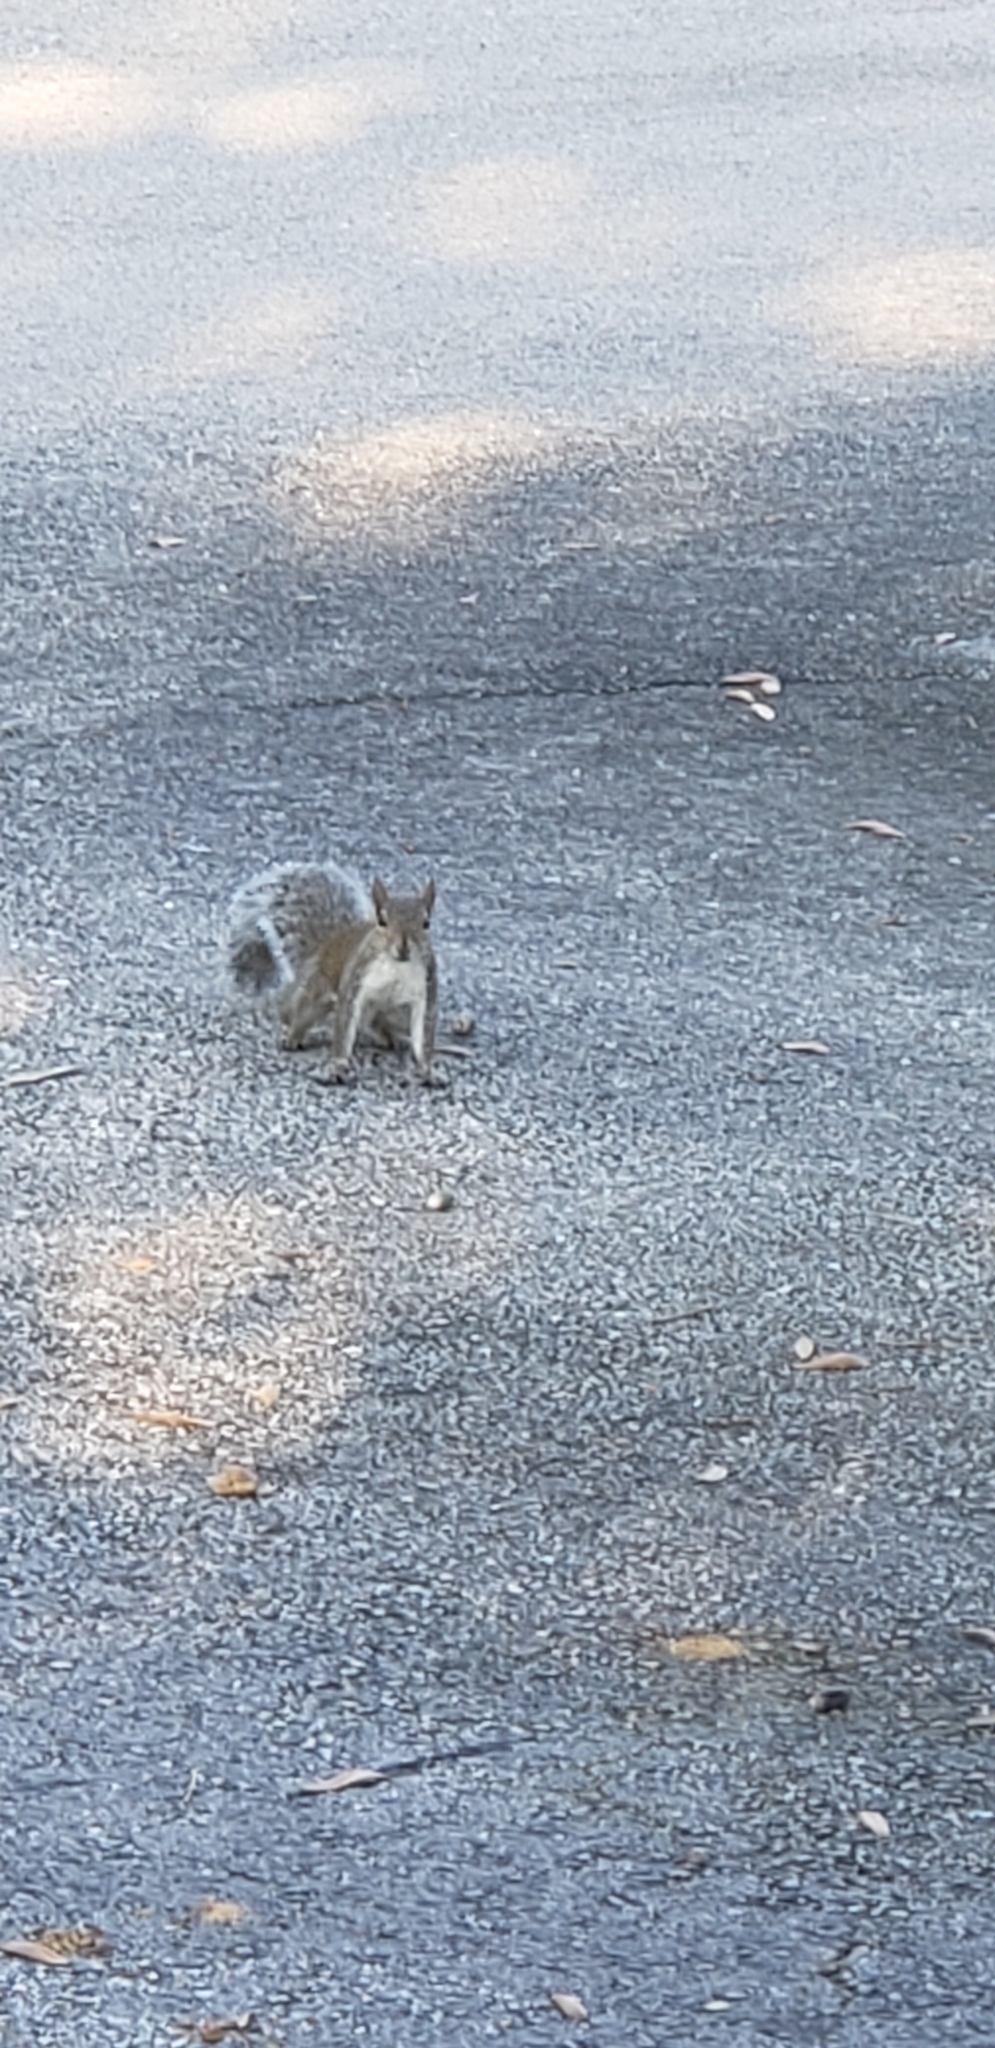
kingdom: Animalia
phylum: Chordata
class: Mammalia
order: Rodentia
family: Sciuridae
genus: Sciurus
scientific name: Sciurus carolinensis
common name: Eastern gray squirrel
